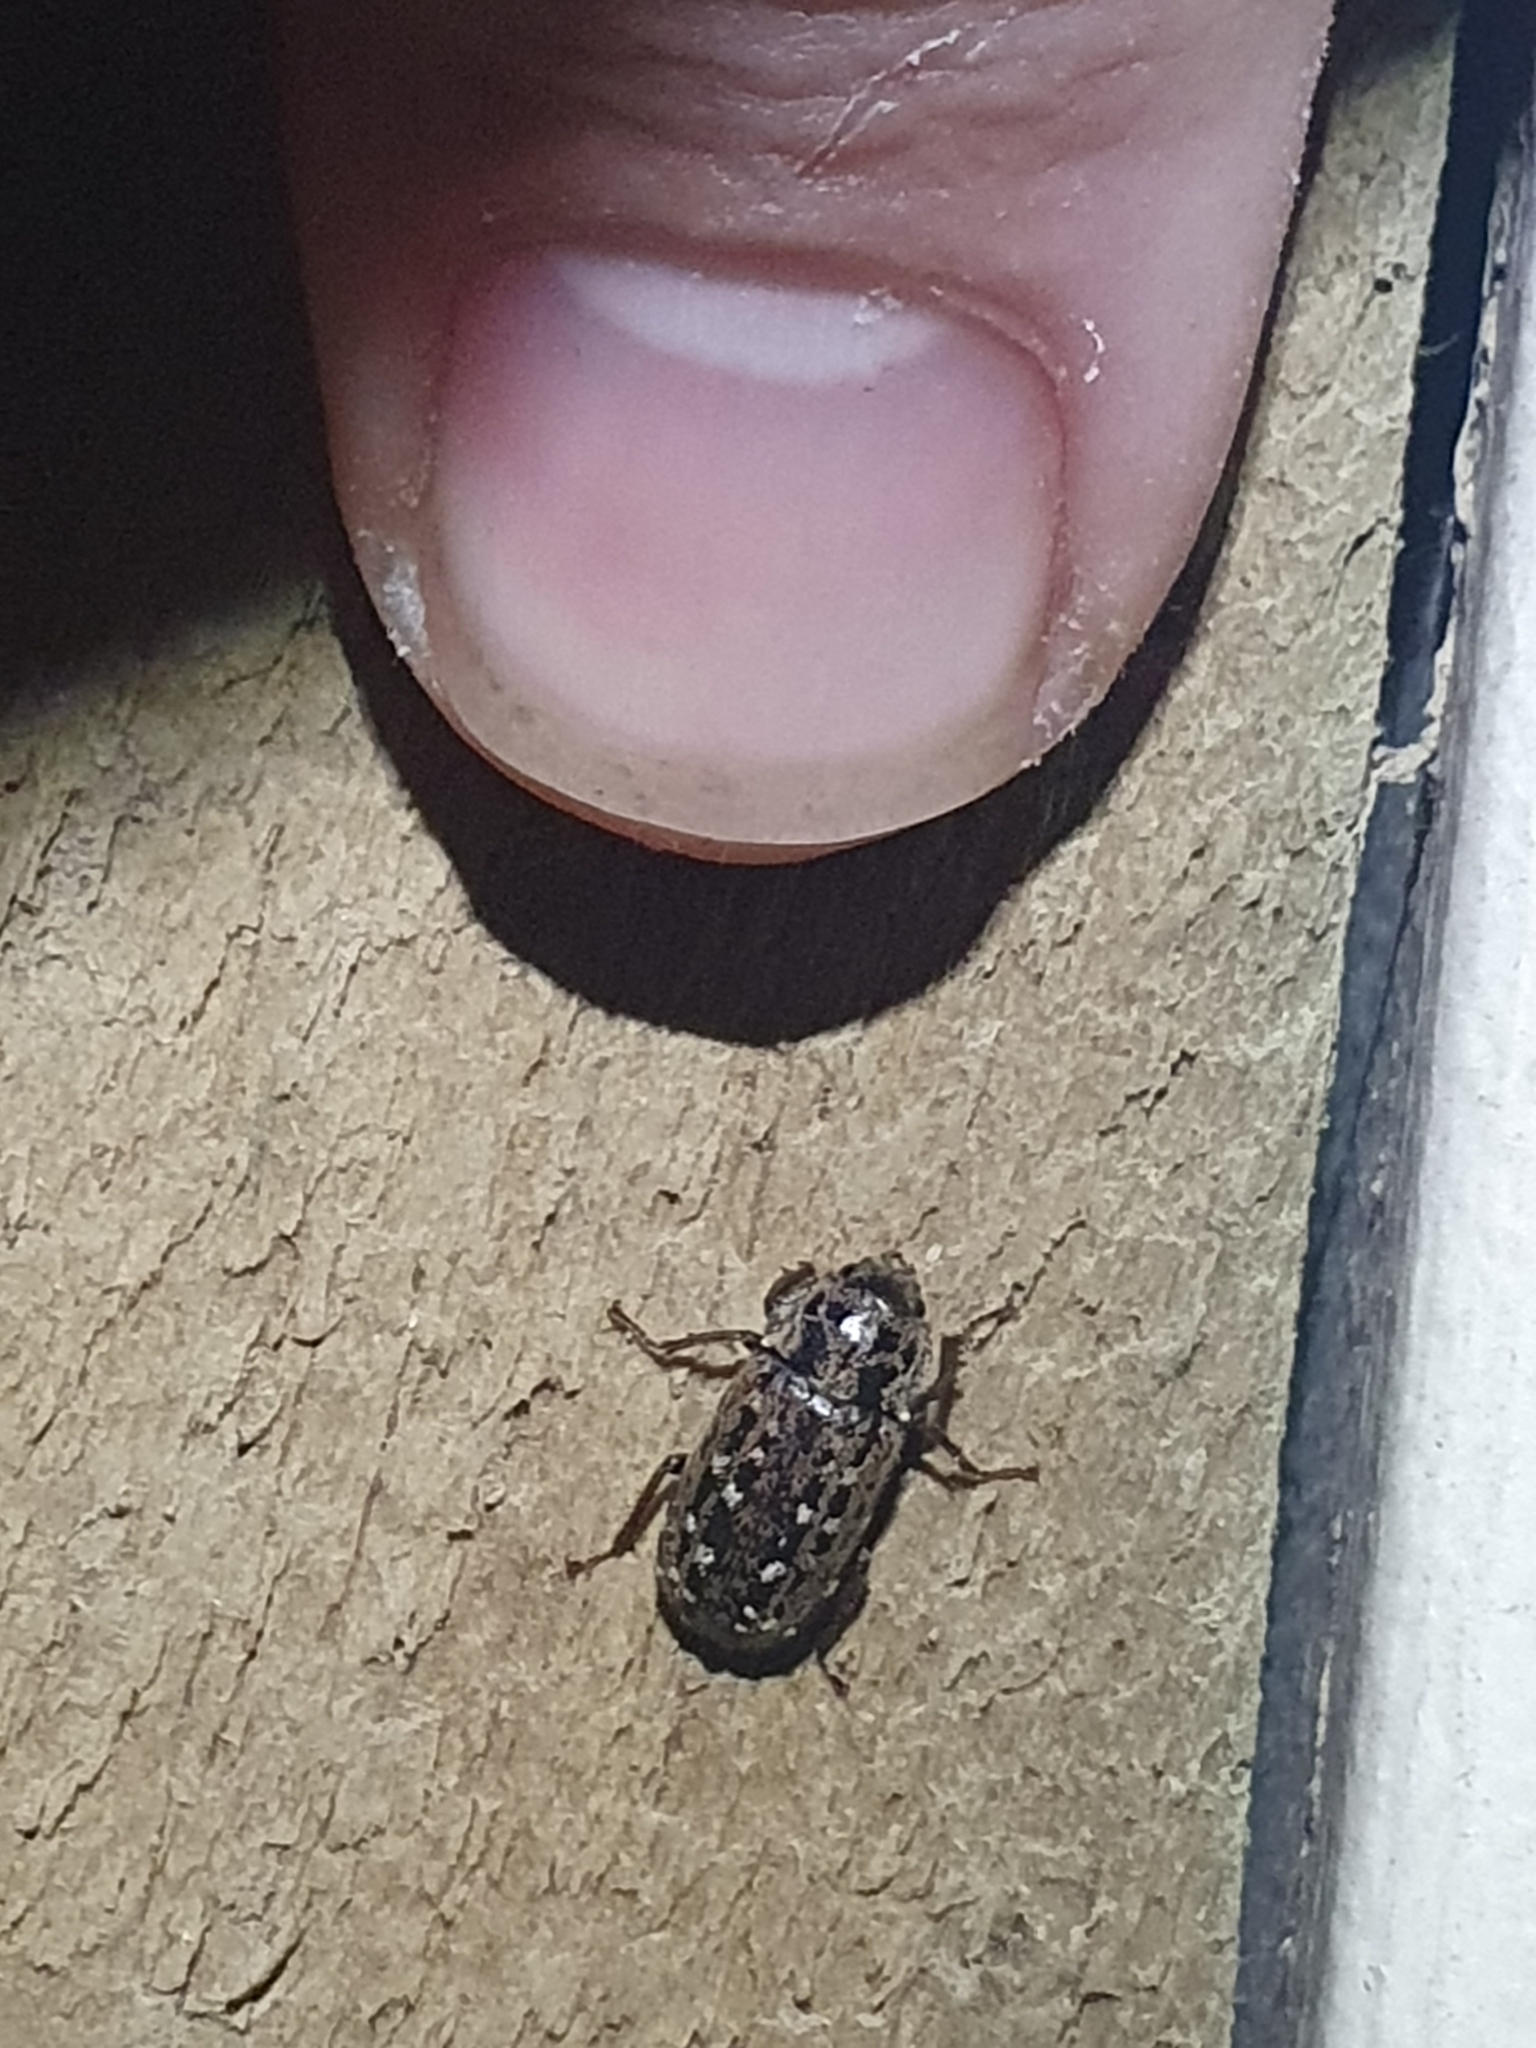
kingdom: Animalia
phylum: Arthropoda
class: Insecta
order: Coleoptera
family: Lucanidae
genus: Mitophyllus
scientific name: Mitophyllus irroratus
